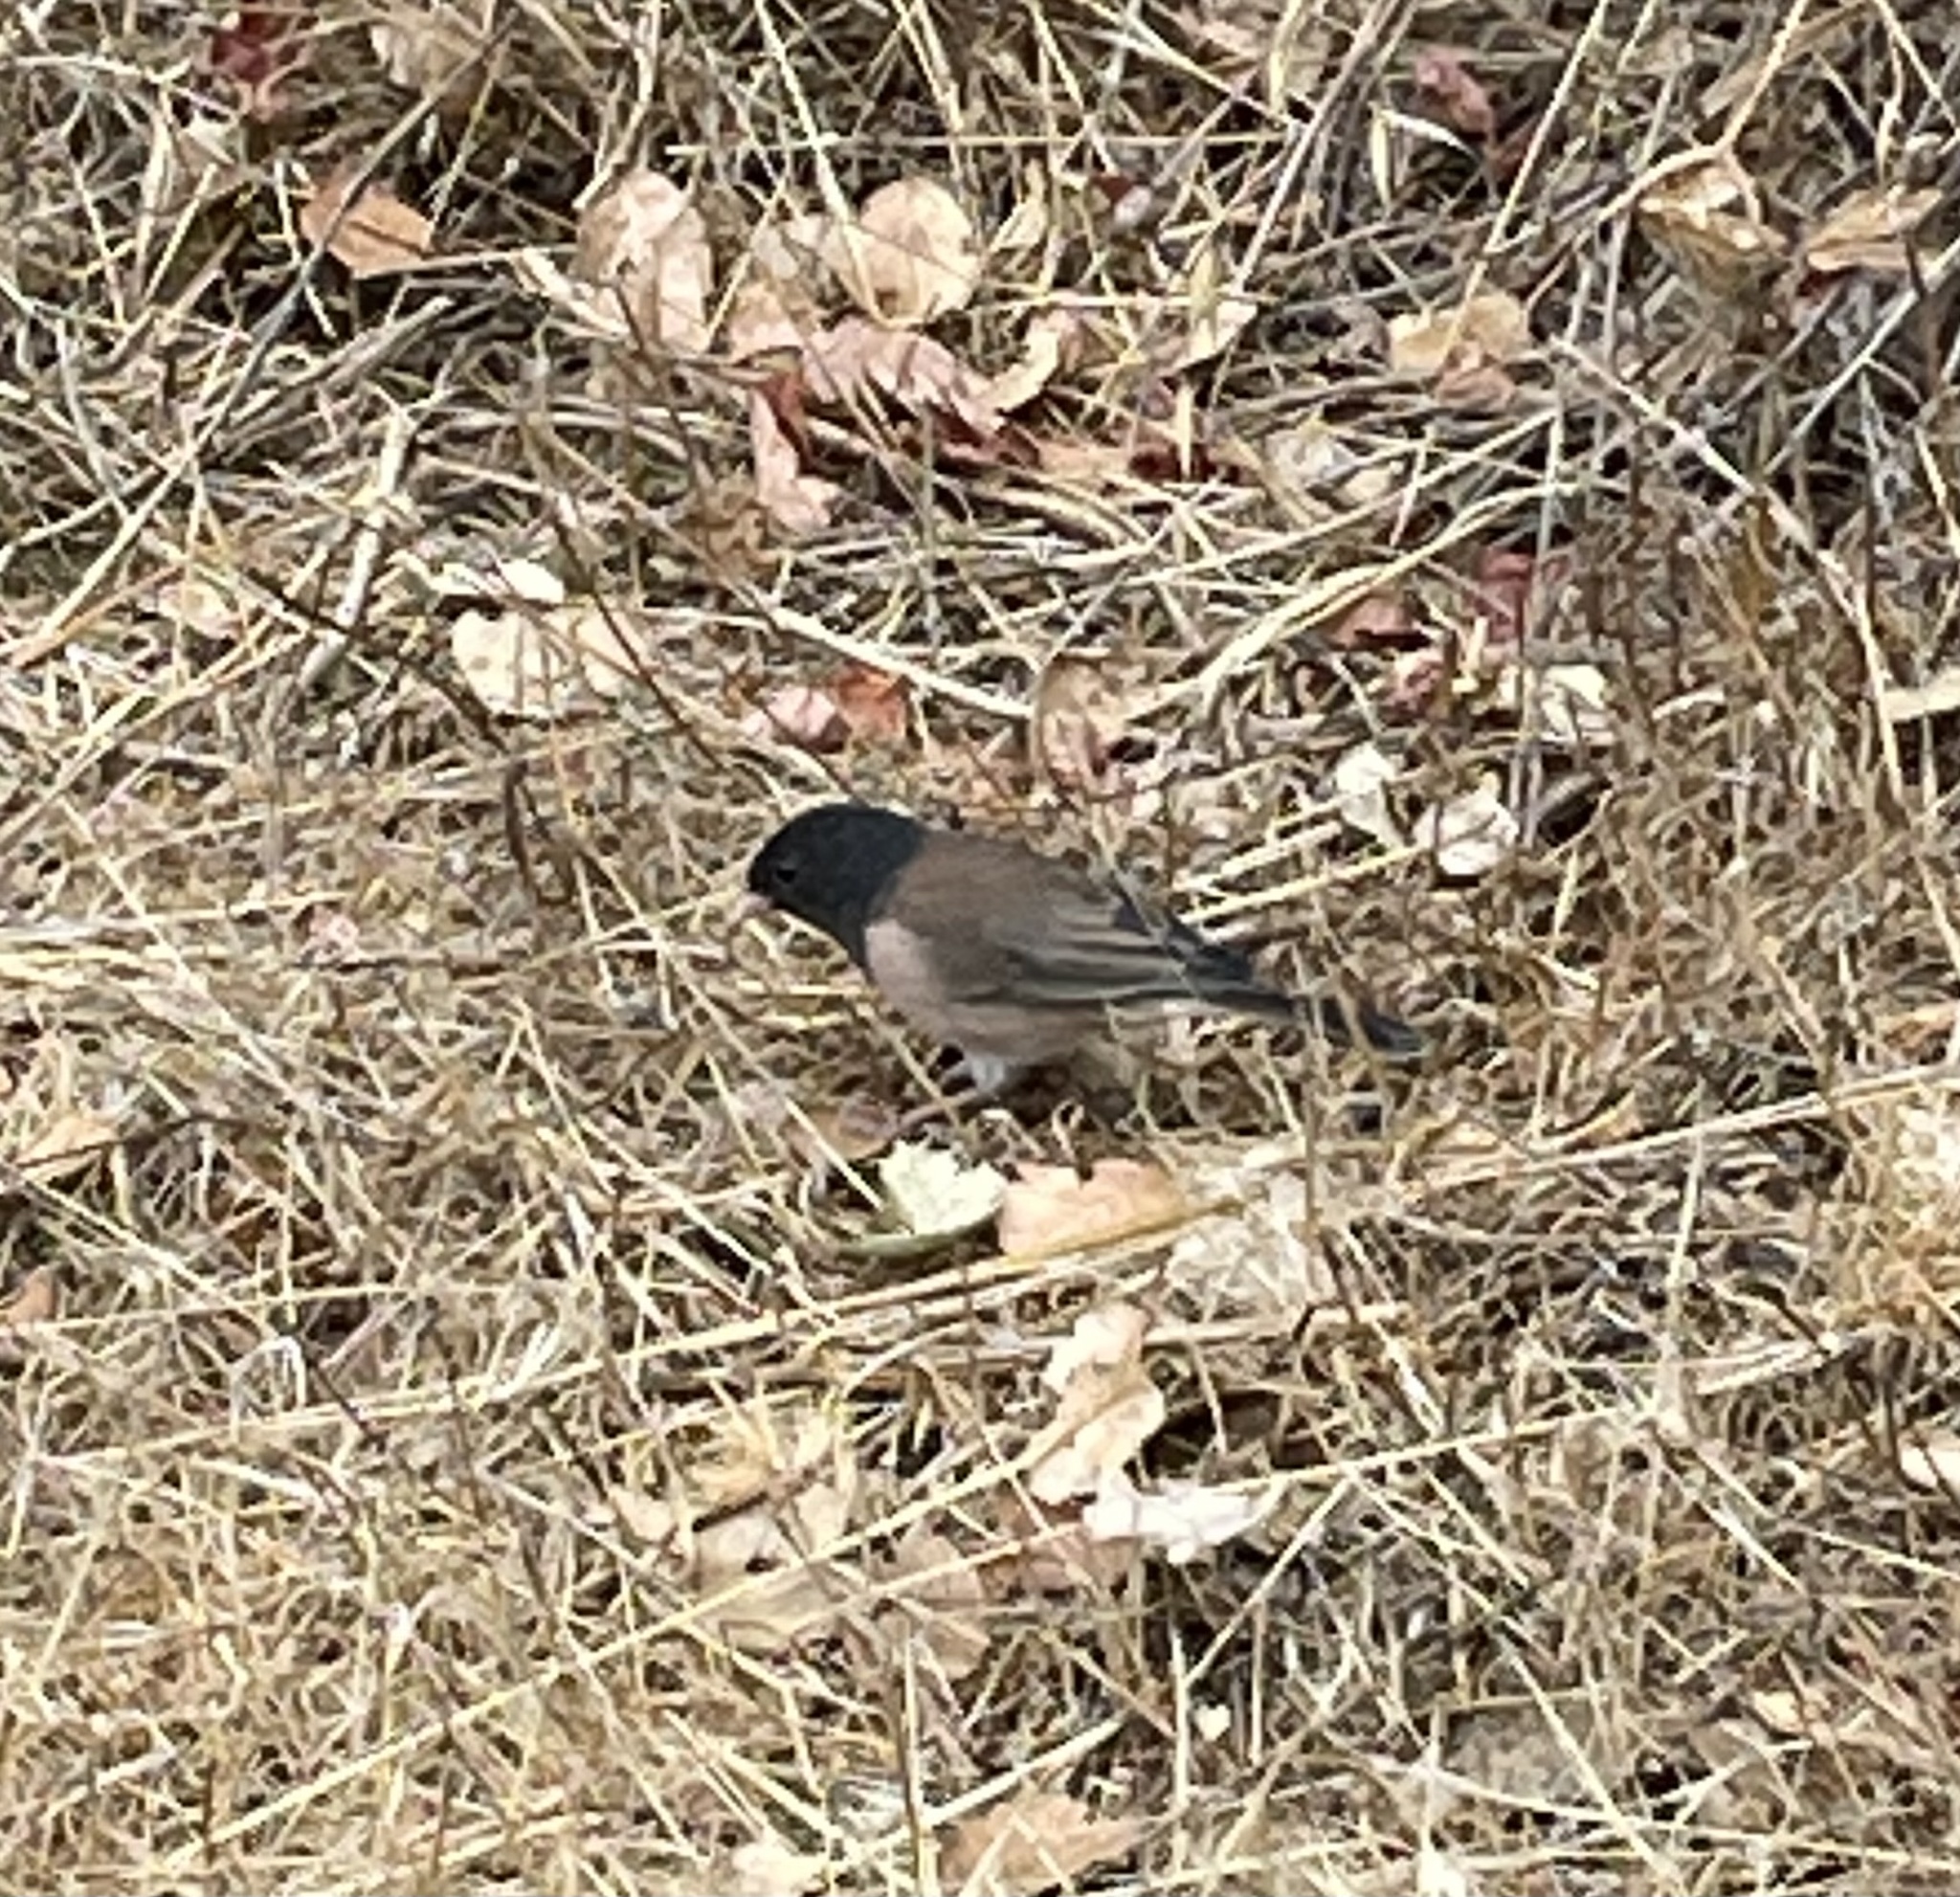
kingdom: Animalia
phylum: Chordata
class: Aves
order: Passeriformes
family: Passerellidae
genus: Junco
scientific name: Junco hyemalis
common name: Dark-eyed junco
